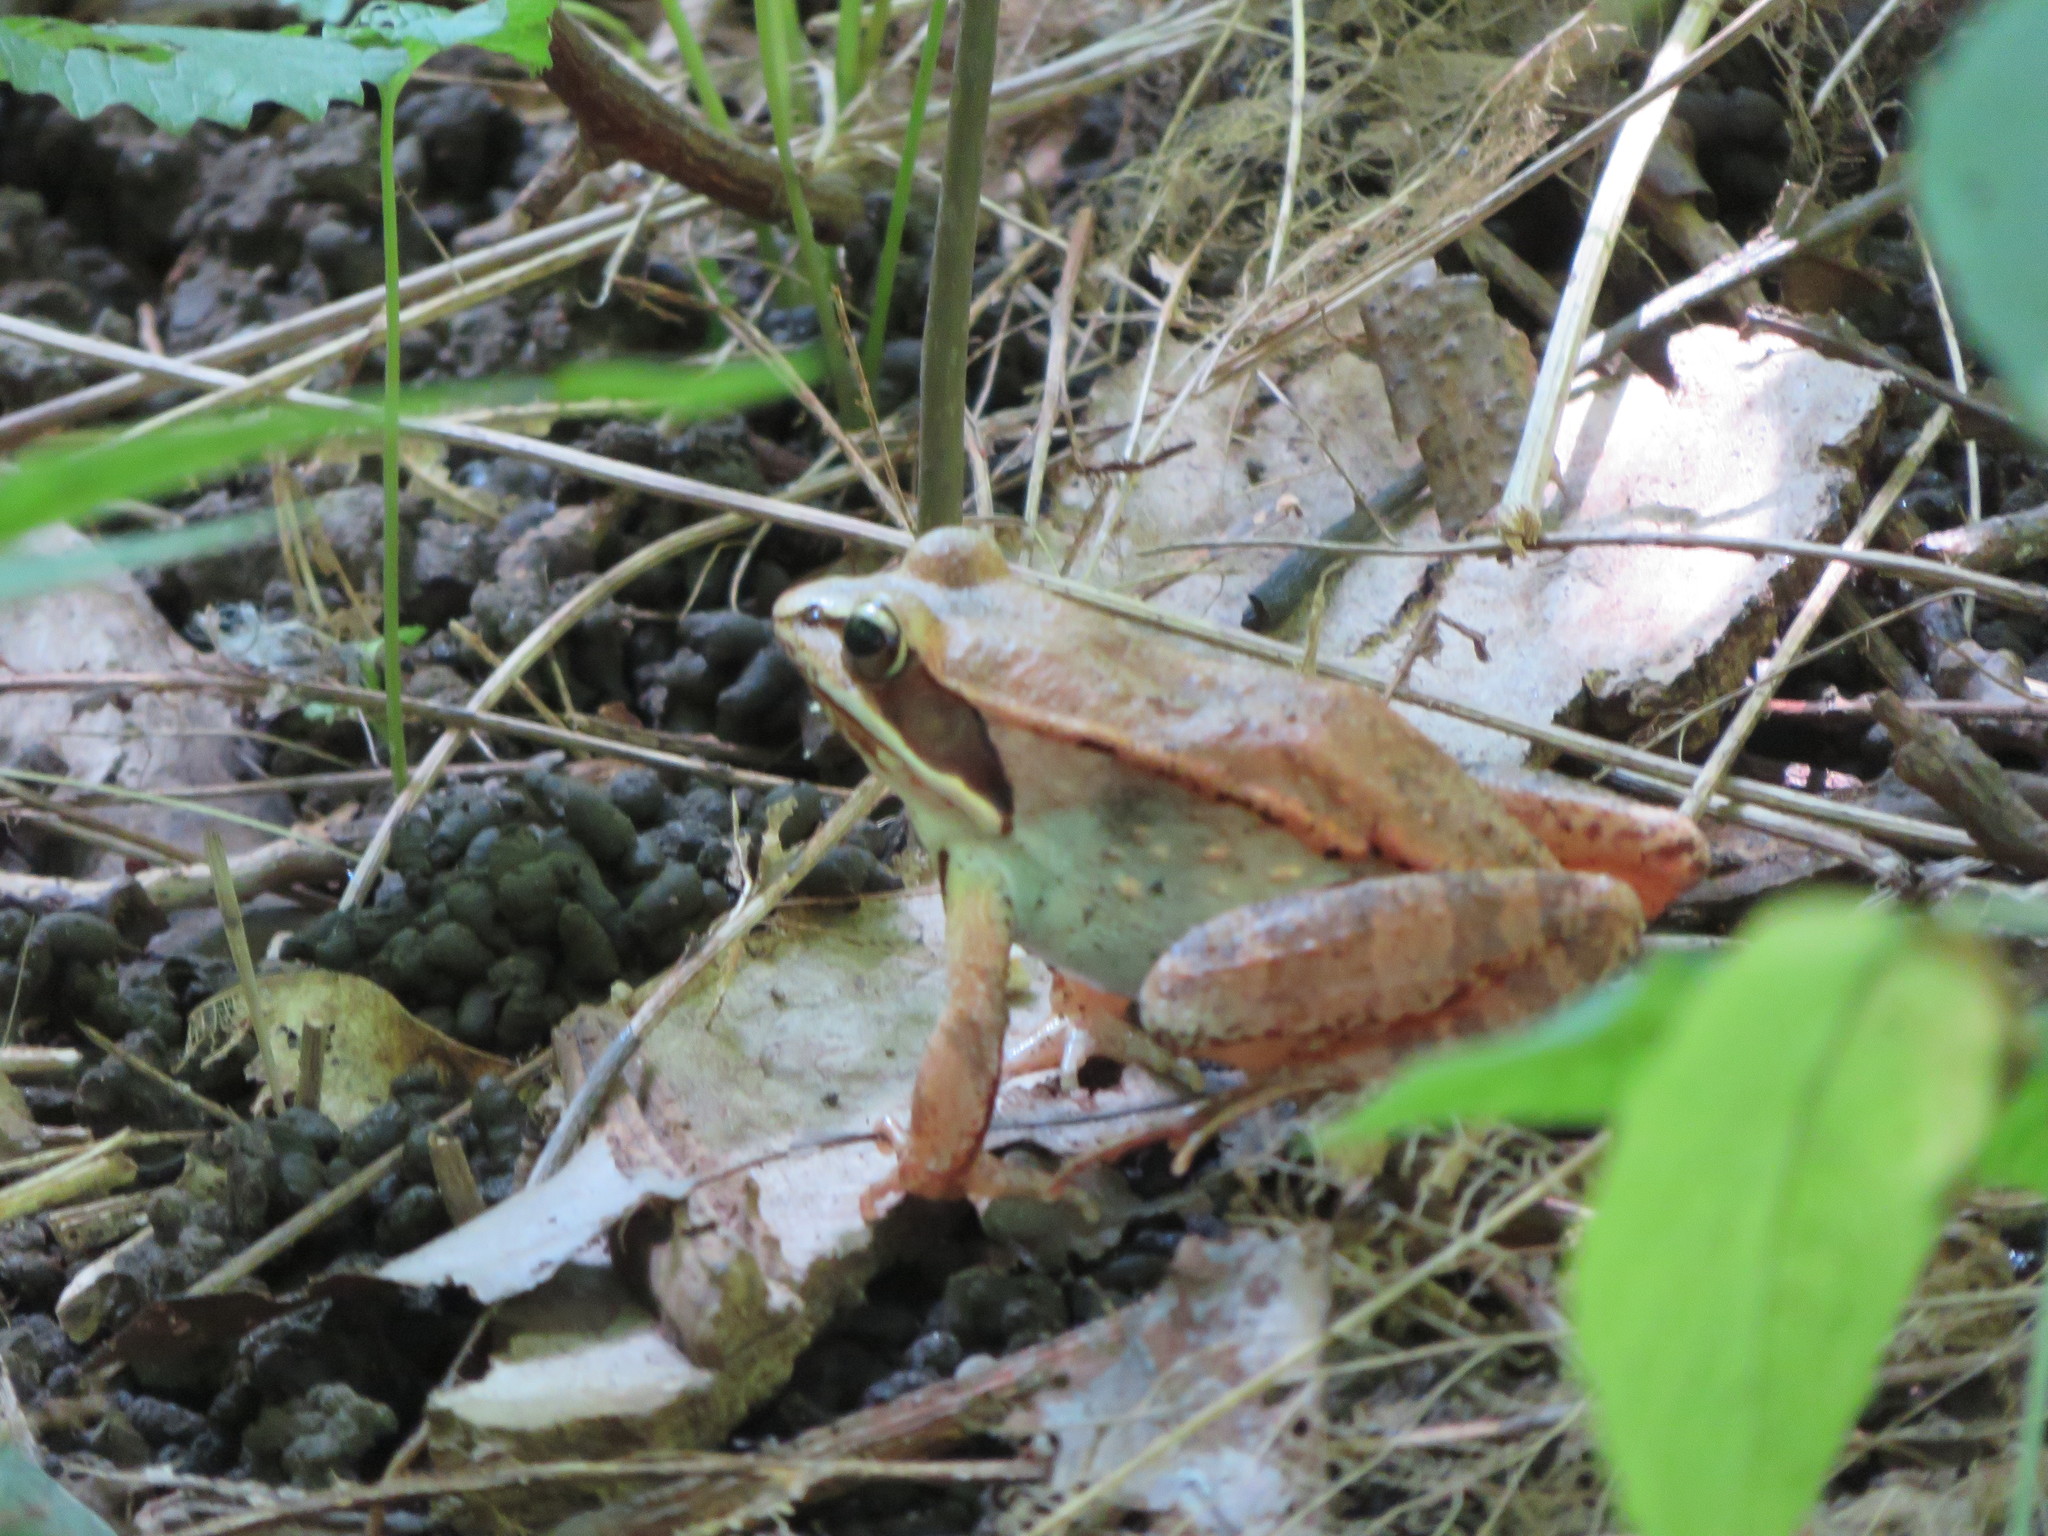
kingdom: Animalia
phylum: Chordata
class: Amphibia
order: Anura
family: Ranidae
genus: Lithobates
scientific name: Lithobates sylvaticus
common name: Wood frog
